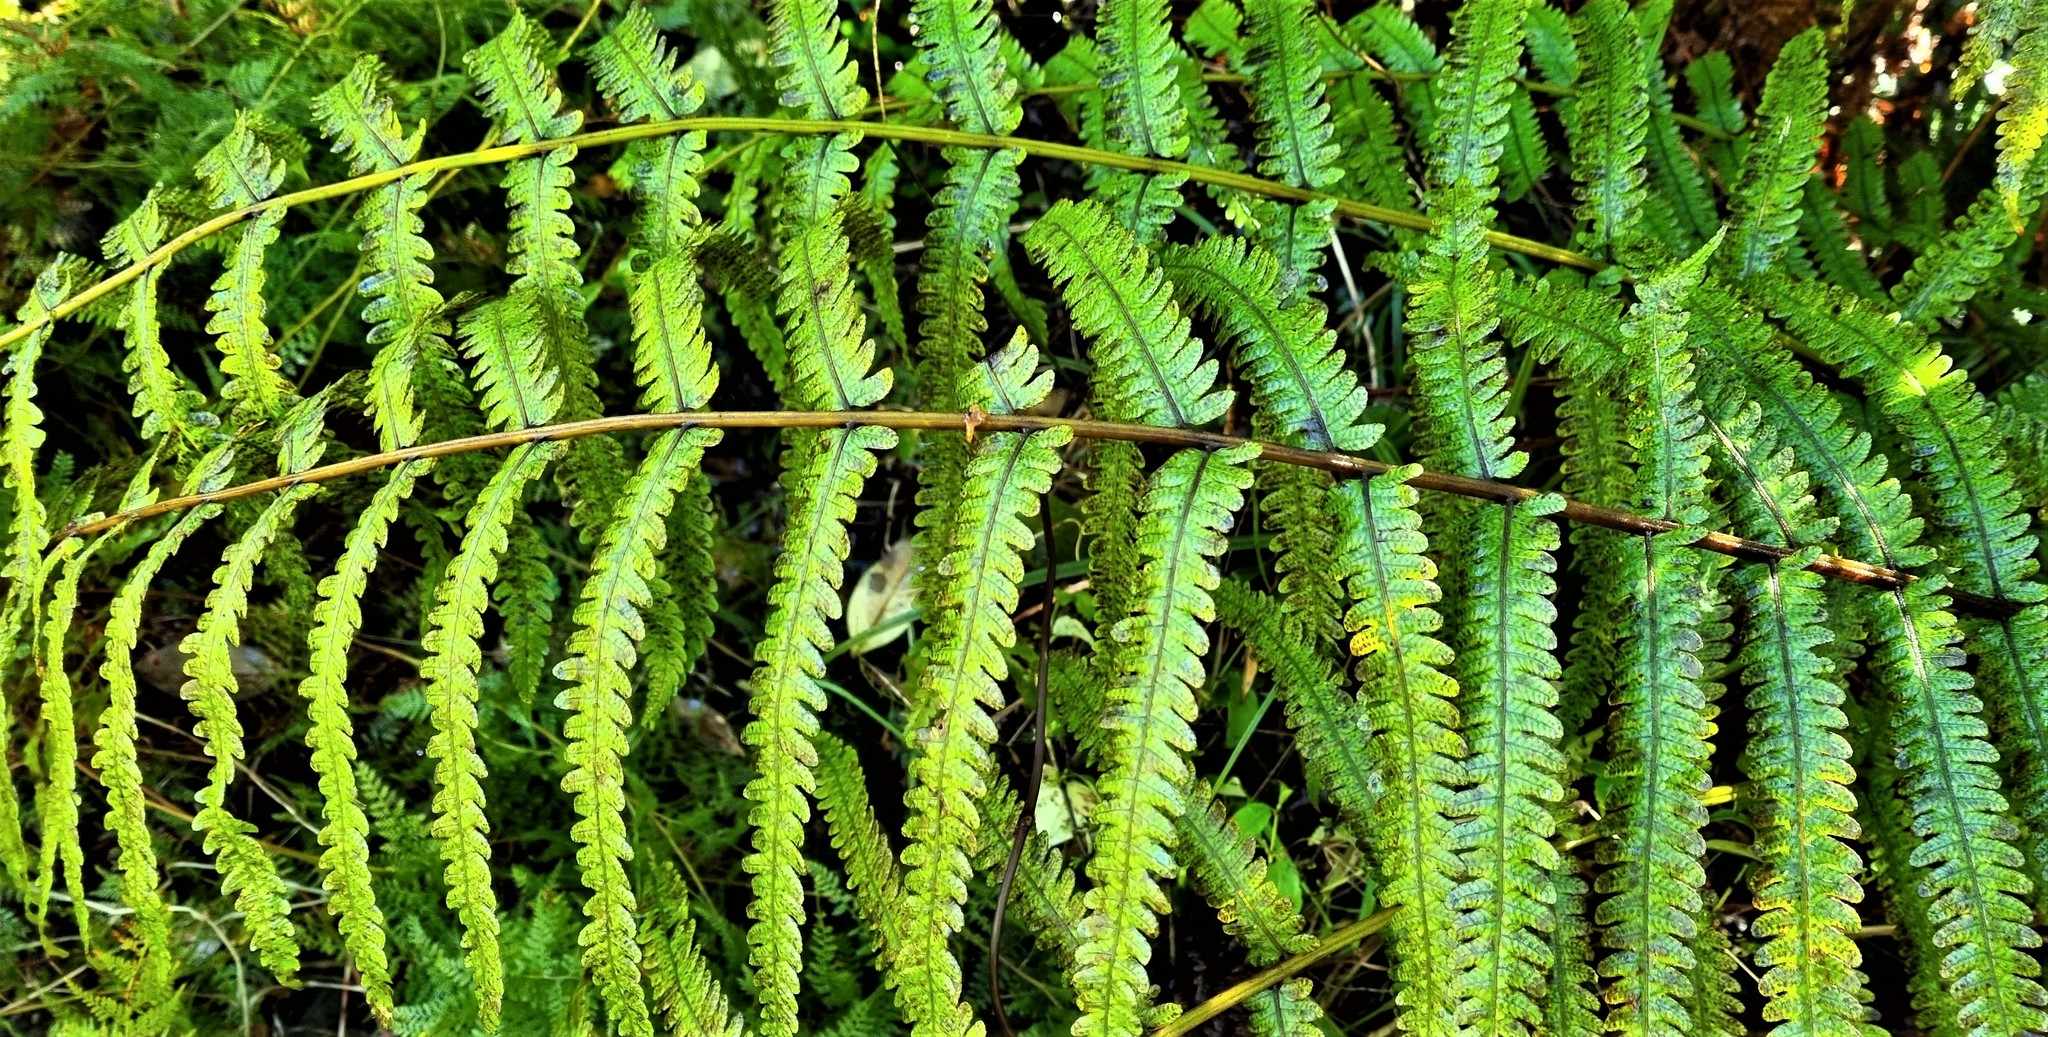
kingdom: Plantae
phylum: Tracheophyta
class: Polypodiopsida
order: Polypodiales
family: Thelypteridaceae
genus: Pakau
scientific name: Pakau pennigera
